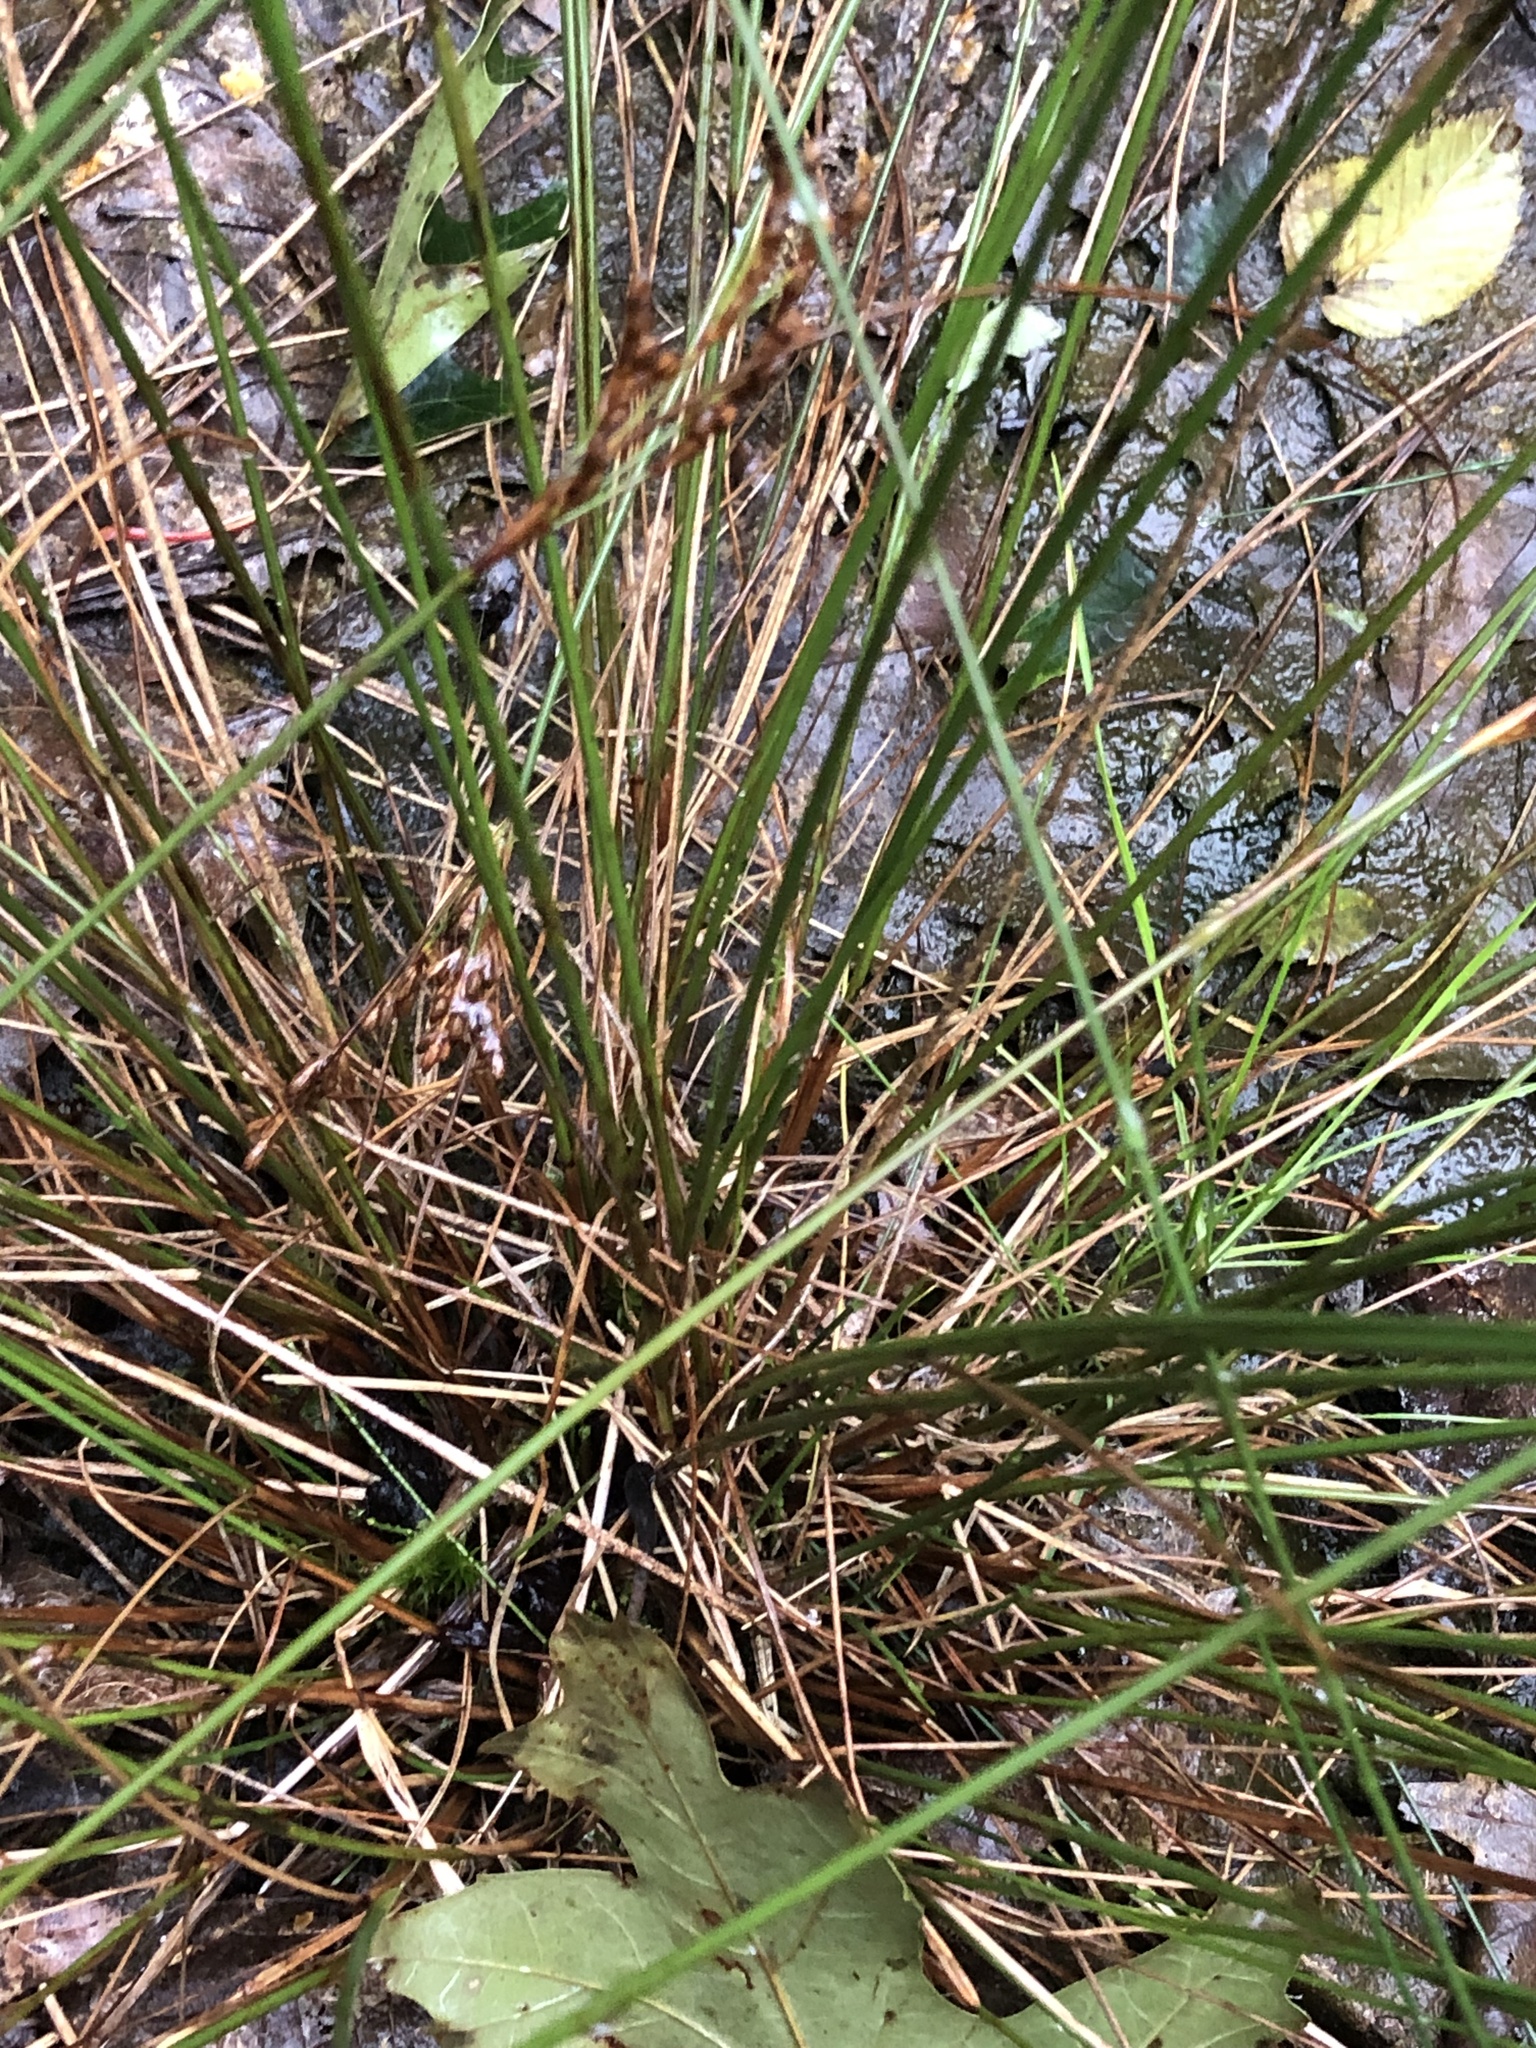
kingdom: Plantae
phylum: Tracheophyta
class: Liliopsida
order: Poales
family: Juncaceae
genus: Juncus
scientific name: Juncus greenei
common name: Greene's rush
